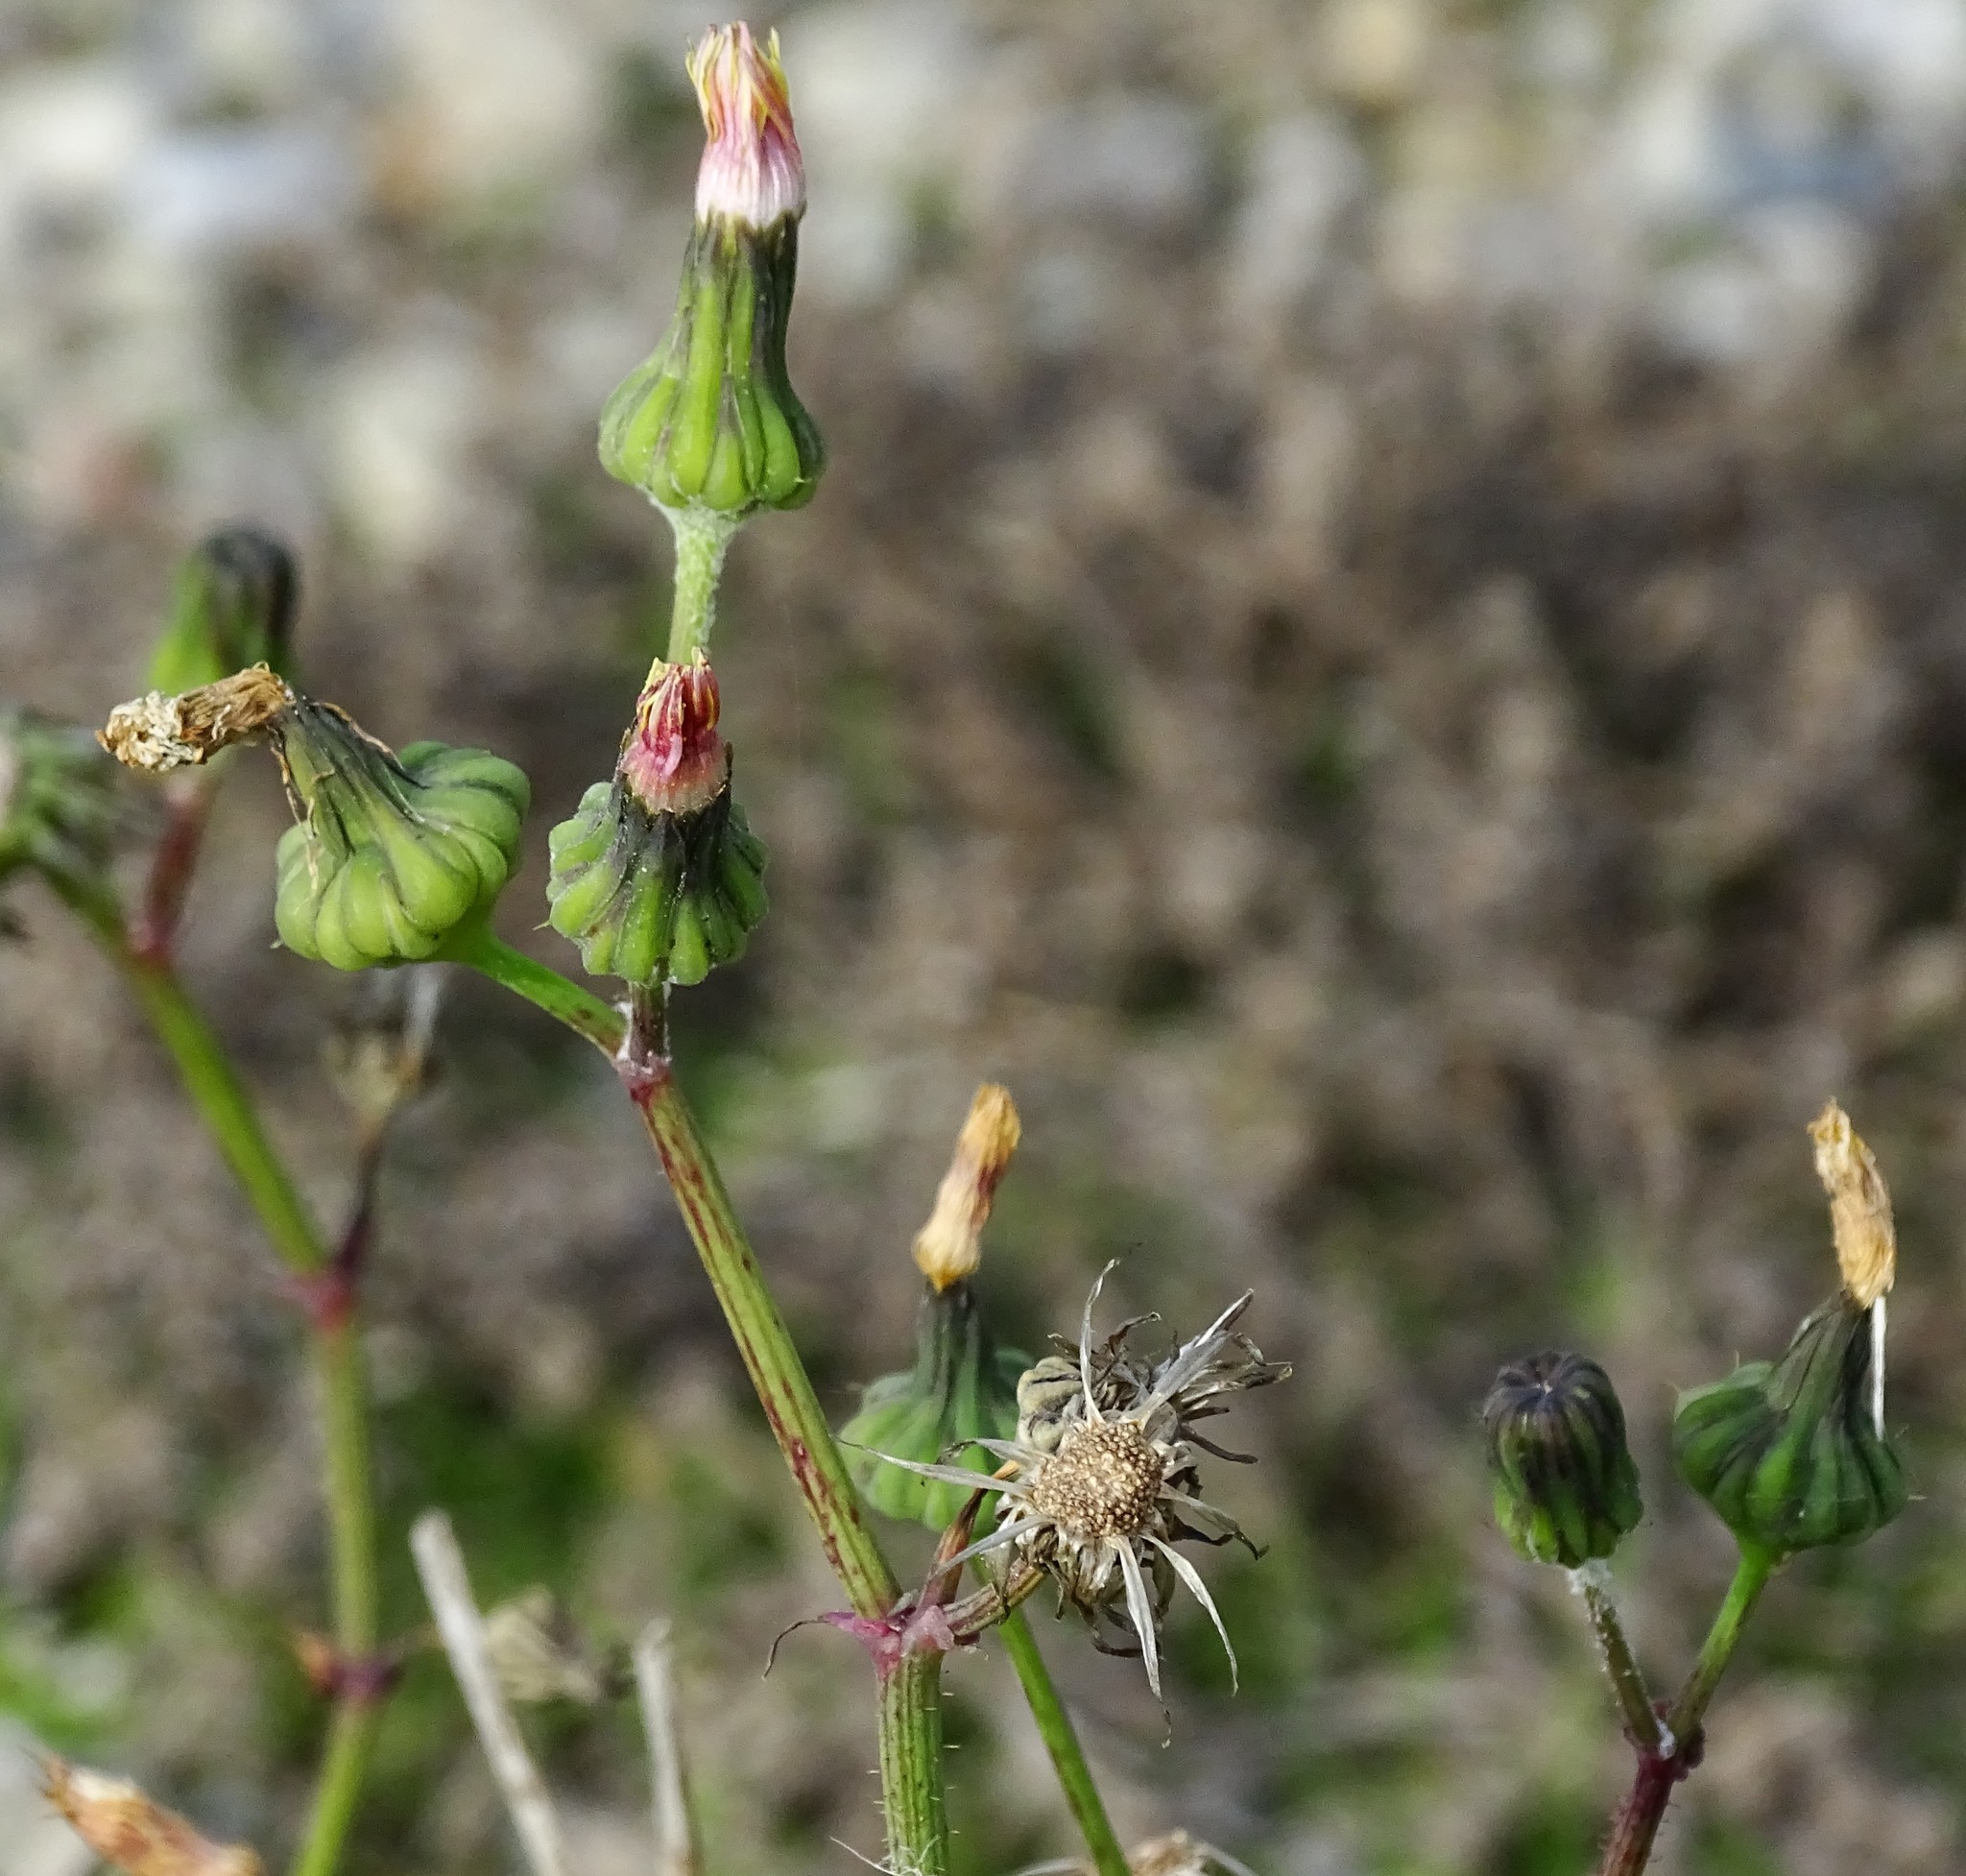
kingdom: Plantae
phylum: Tracheophyta
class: Magnoliopsida
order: Asterales
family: Asteraceae
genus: Sonchus
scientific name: Sonchus oleraceus
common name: Common sowthistle
